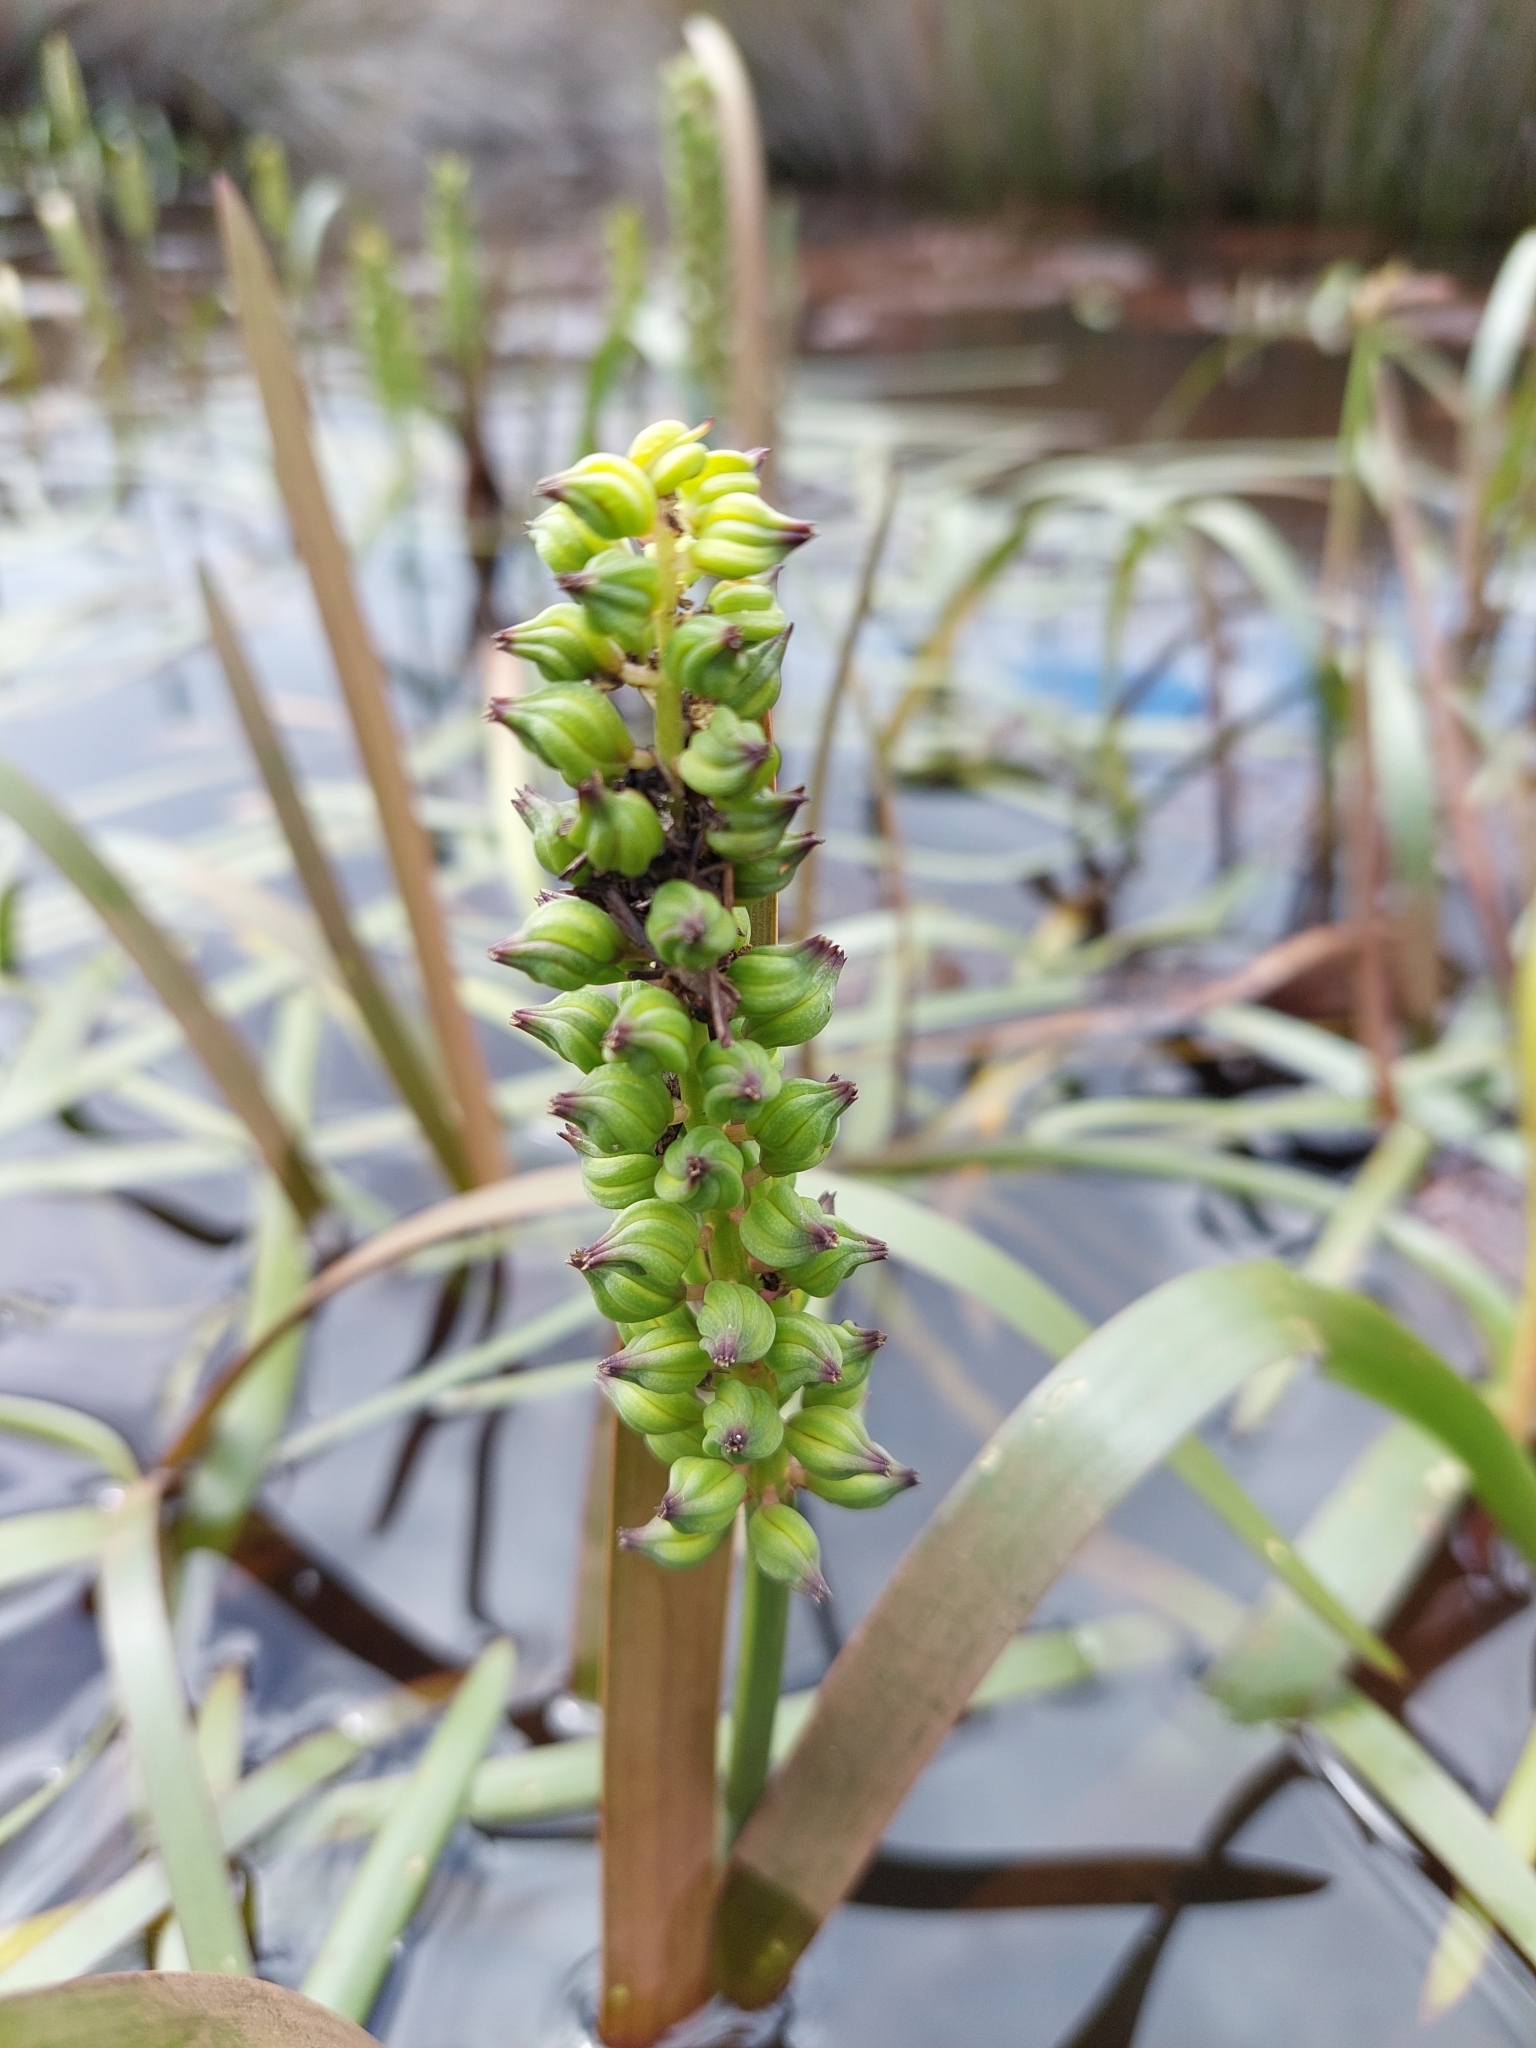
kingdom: Plantae
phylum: Tracheophyta
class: Liliopsida
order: Alismatales
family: Juncaginaceae
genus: Cycnogeton
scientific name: Cycnogeton procerum
